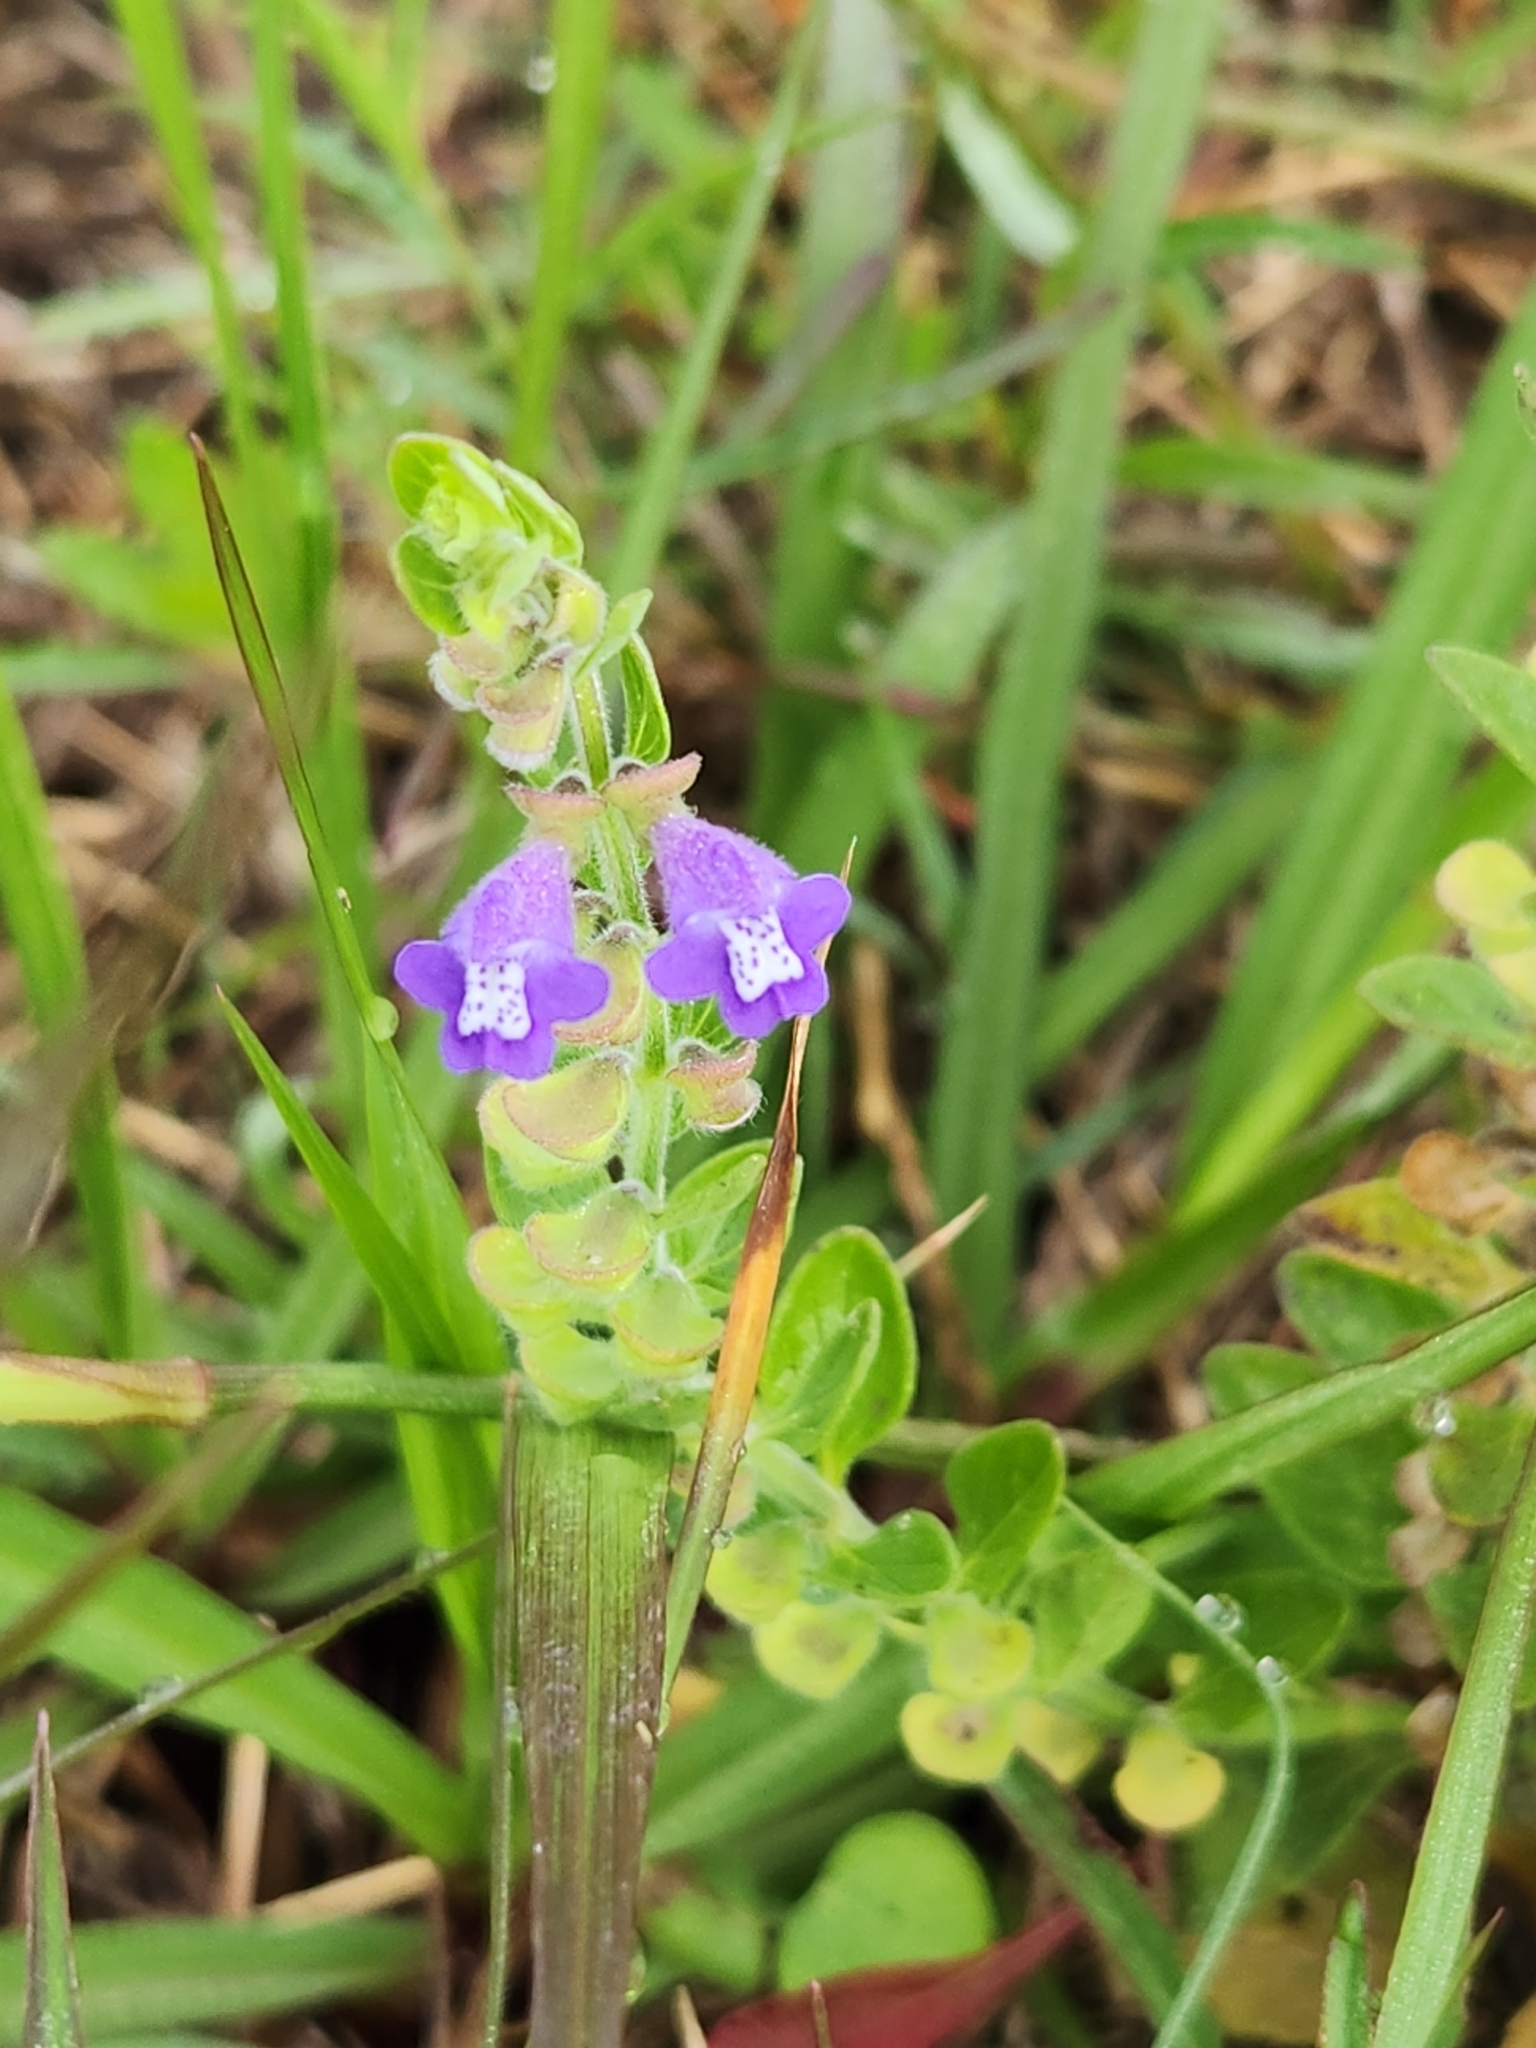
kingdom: Plantae
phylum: Tracheophyta
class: Magnoliopsida
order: Lamiales
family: Lamiaceae
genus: Scutellaria
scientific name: Scutellaria drummondii
